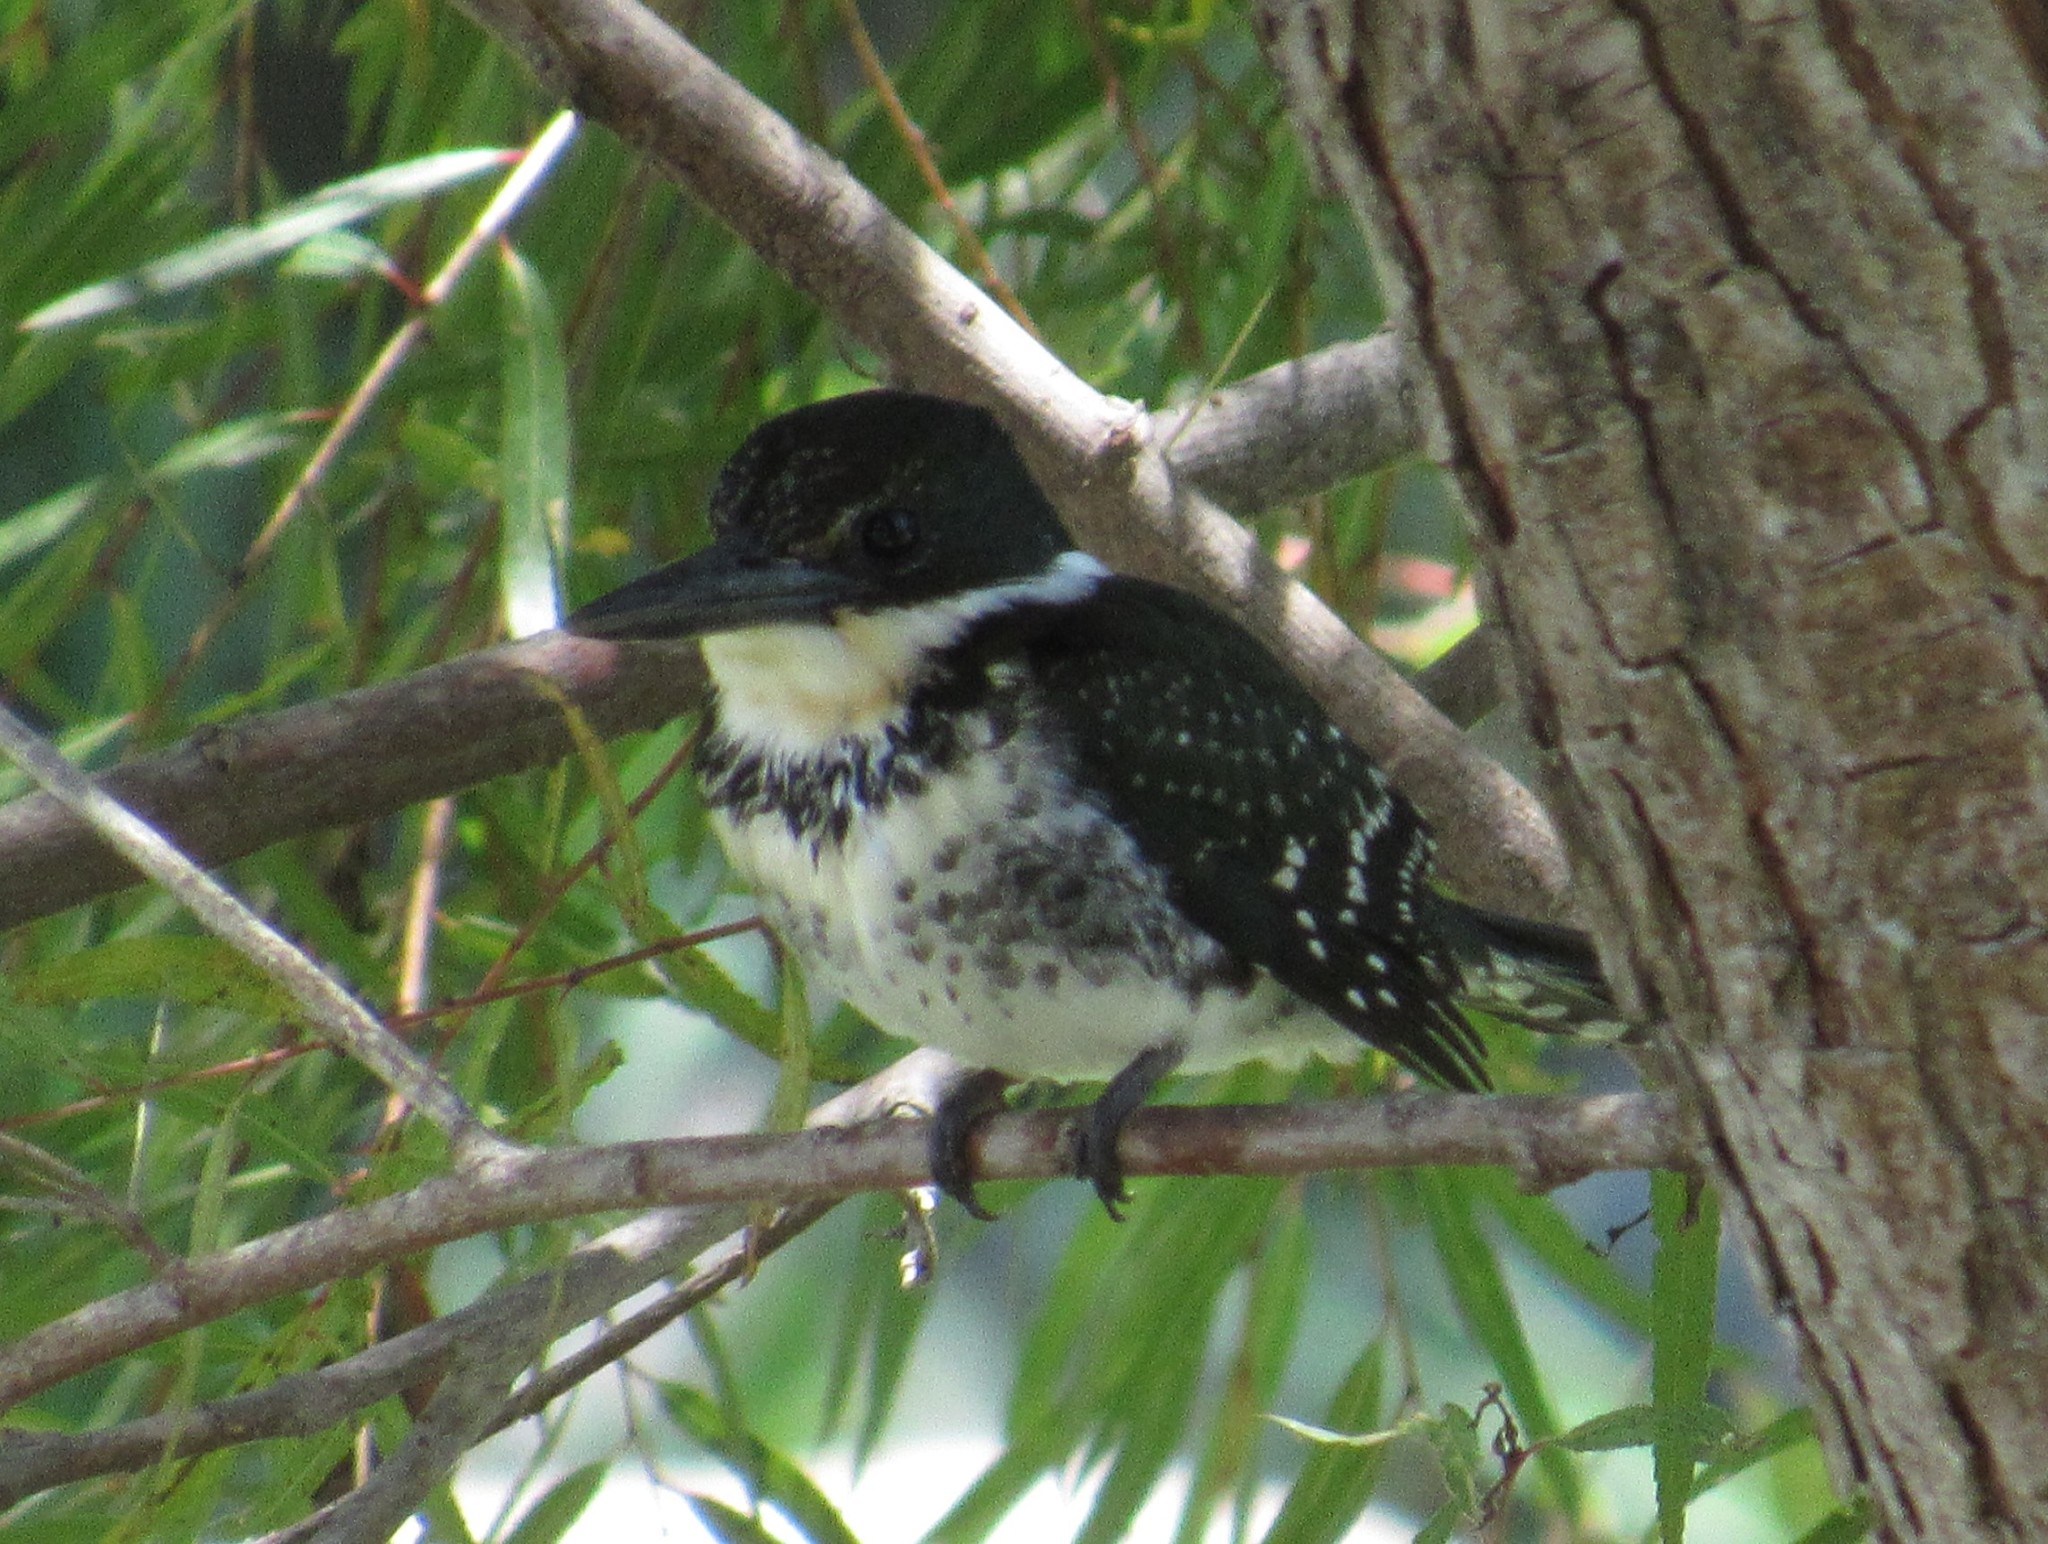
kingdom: Animalia
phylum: Chordata
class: Aves
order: Coraciiformes
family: Alcedinidae
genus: Chloroceryle
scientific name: Chloroceryle americana
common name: Green kingfisher
